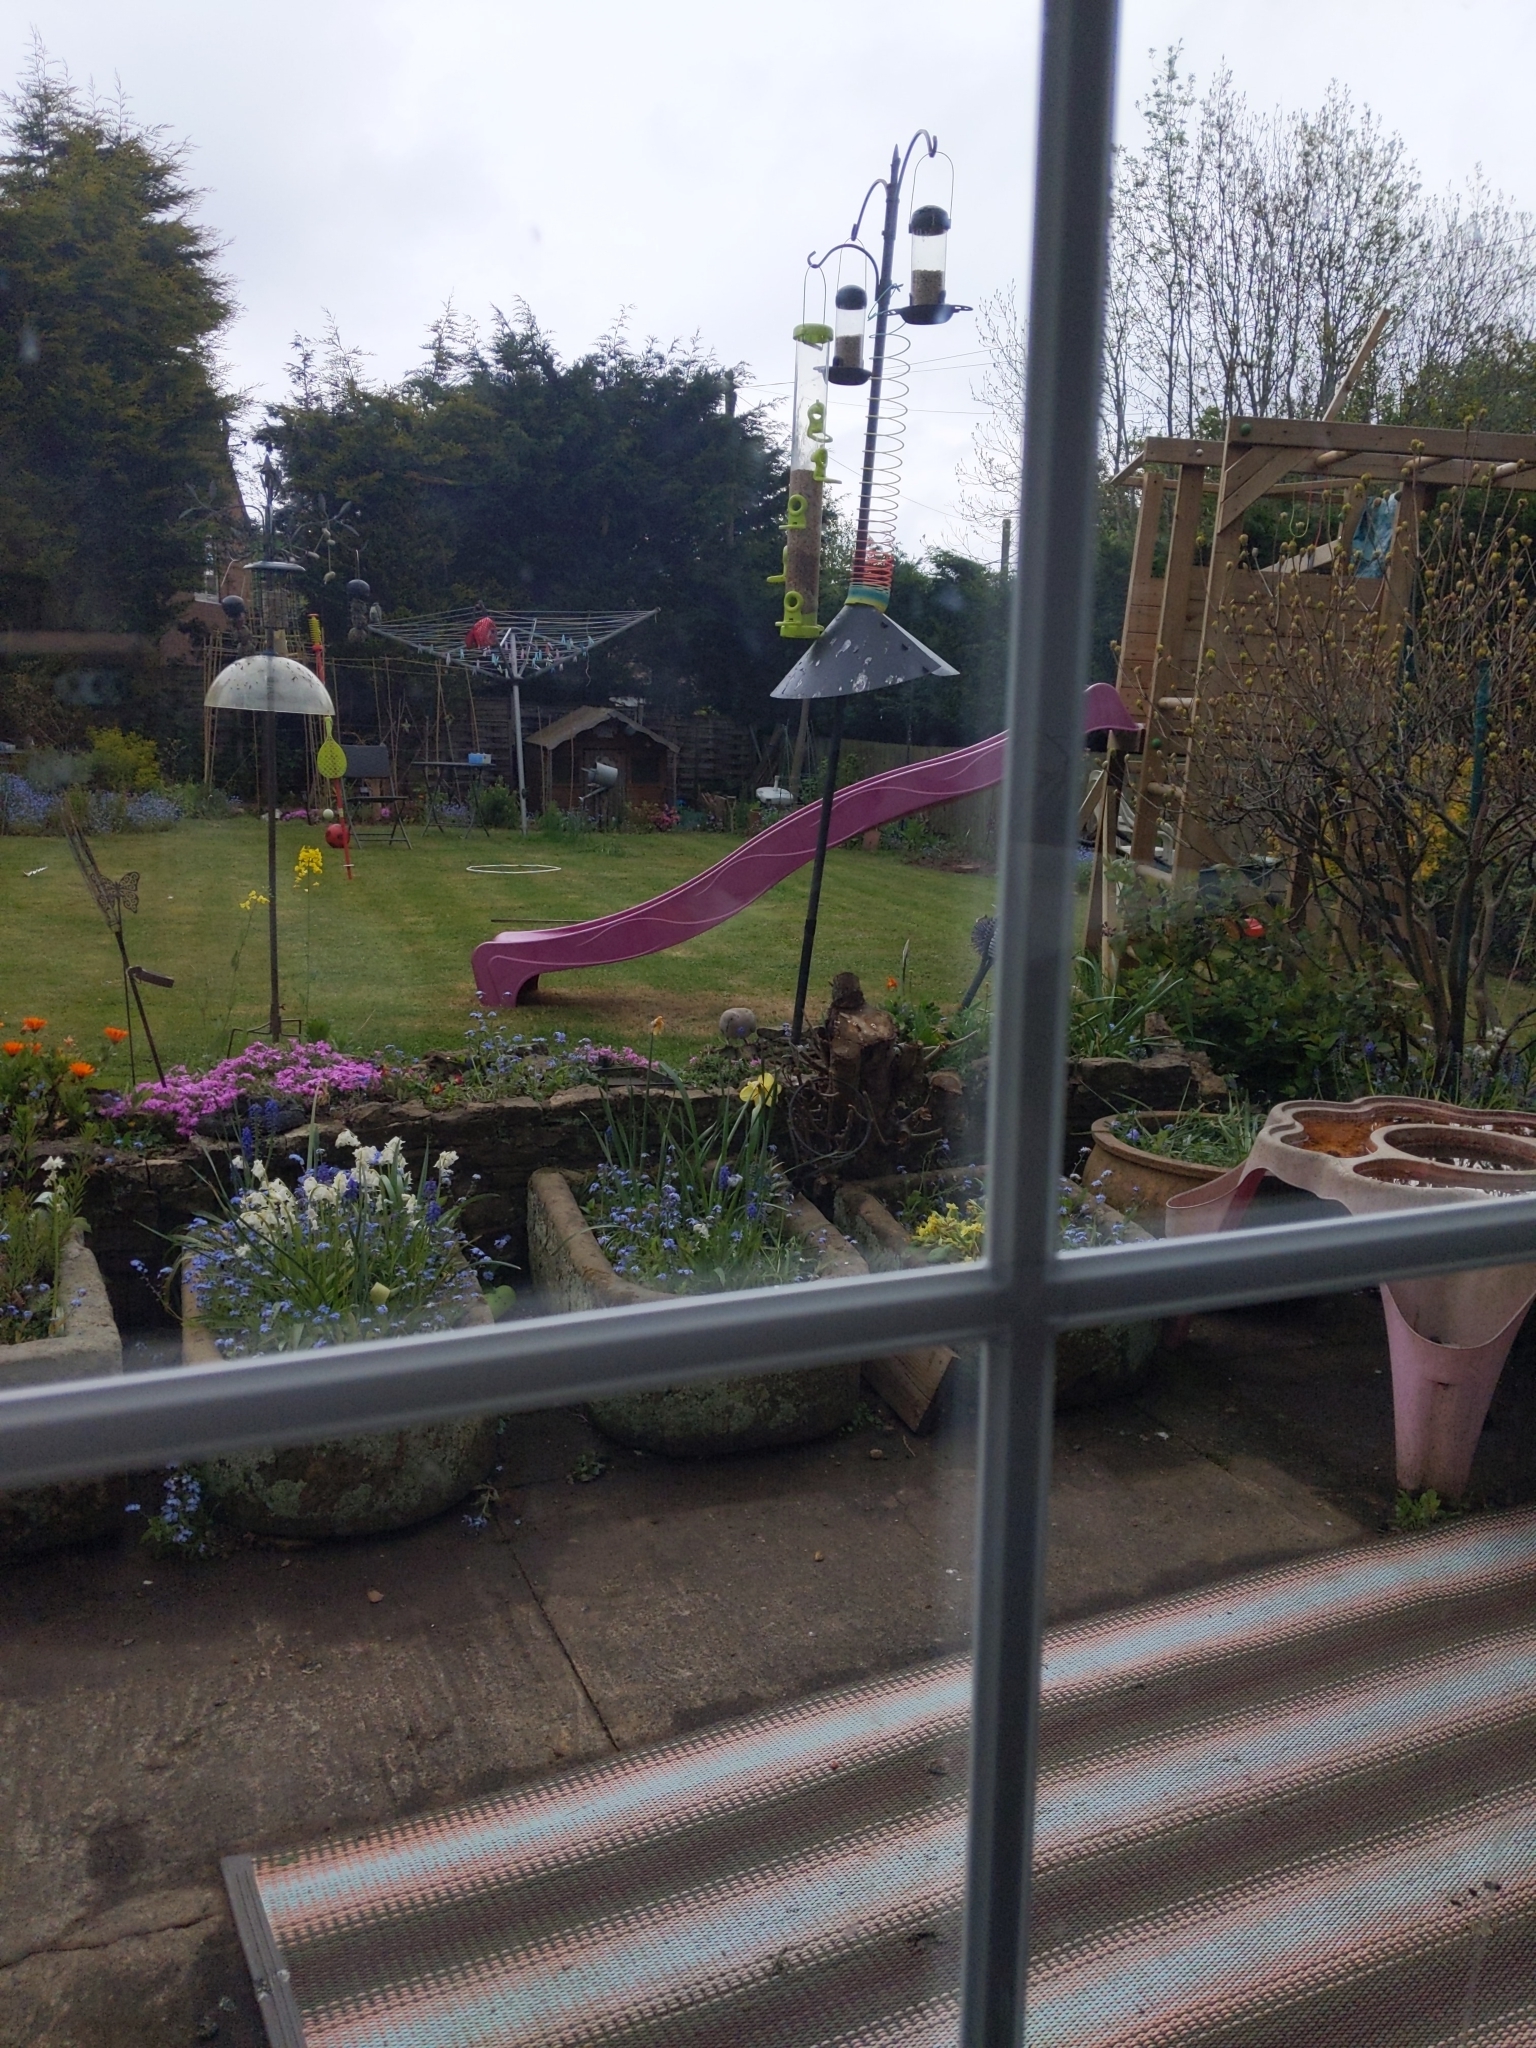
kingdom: Animalia
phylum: Chordata
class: Aves
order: Columbiformes
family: Columbidae
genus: Streptopelia
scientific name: Streptopelia decaocto
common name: Eurasian collared dove
